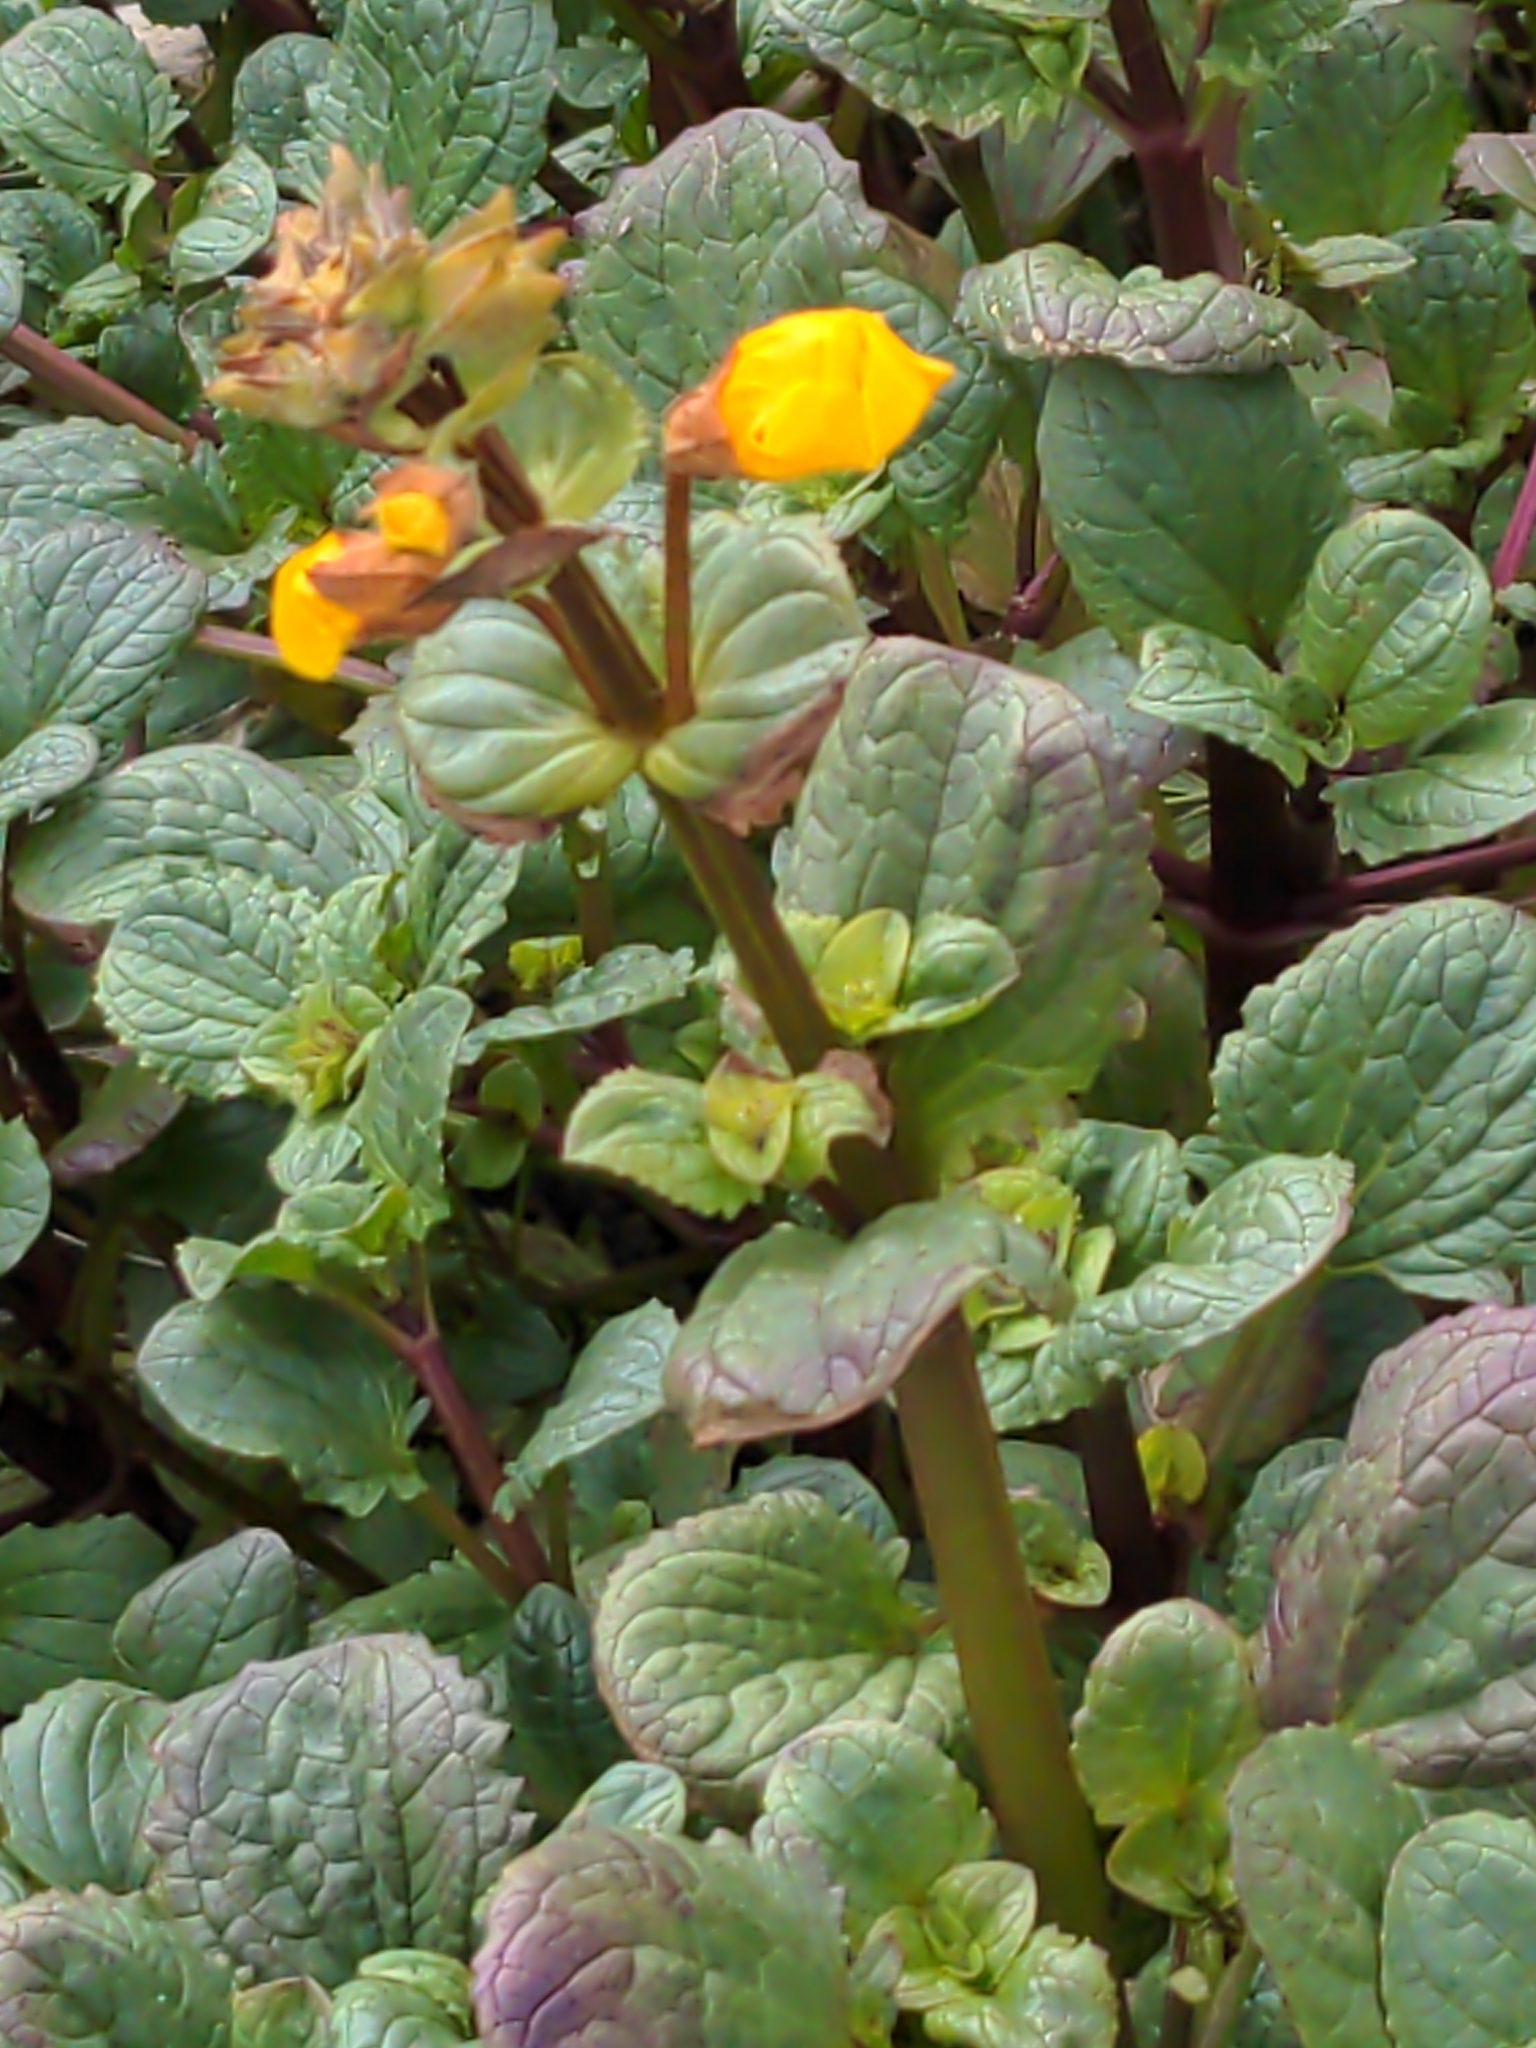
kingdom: Plantae
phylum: Tracheophyta
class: Magnoliopsida
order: Lamiales
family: Phrymaceae
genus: Erythranthe
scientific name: Erythranthe grandis
